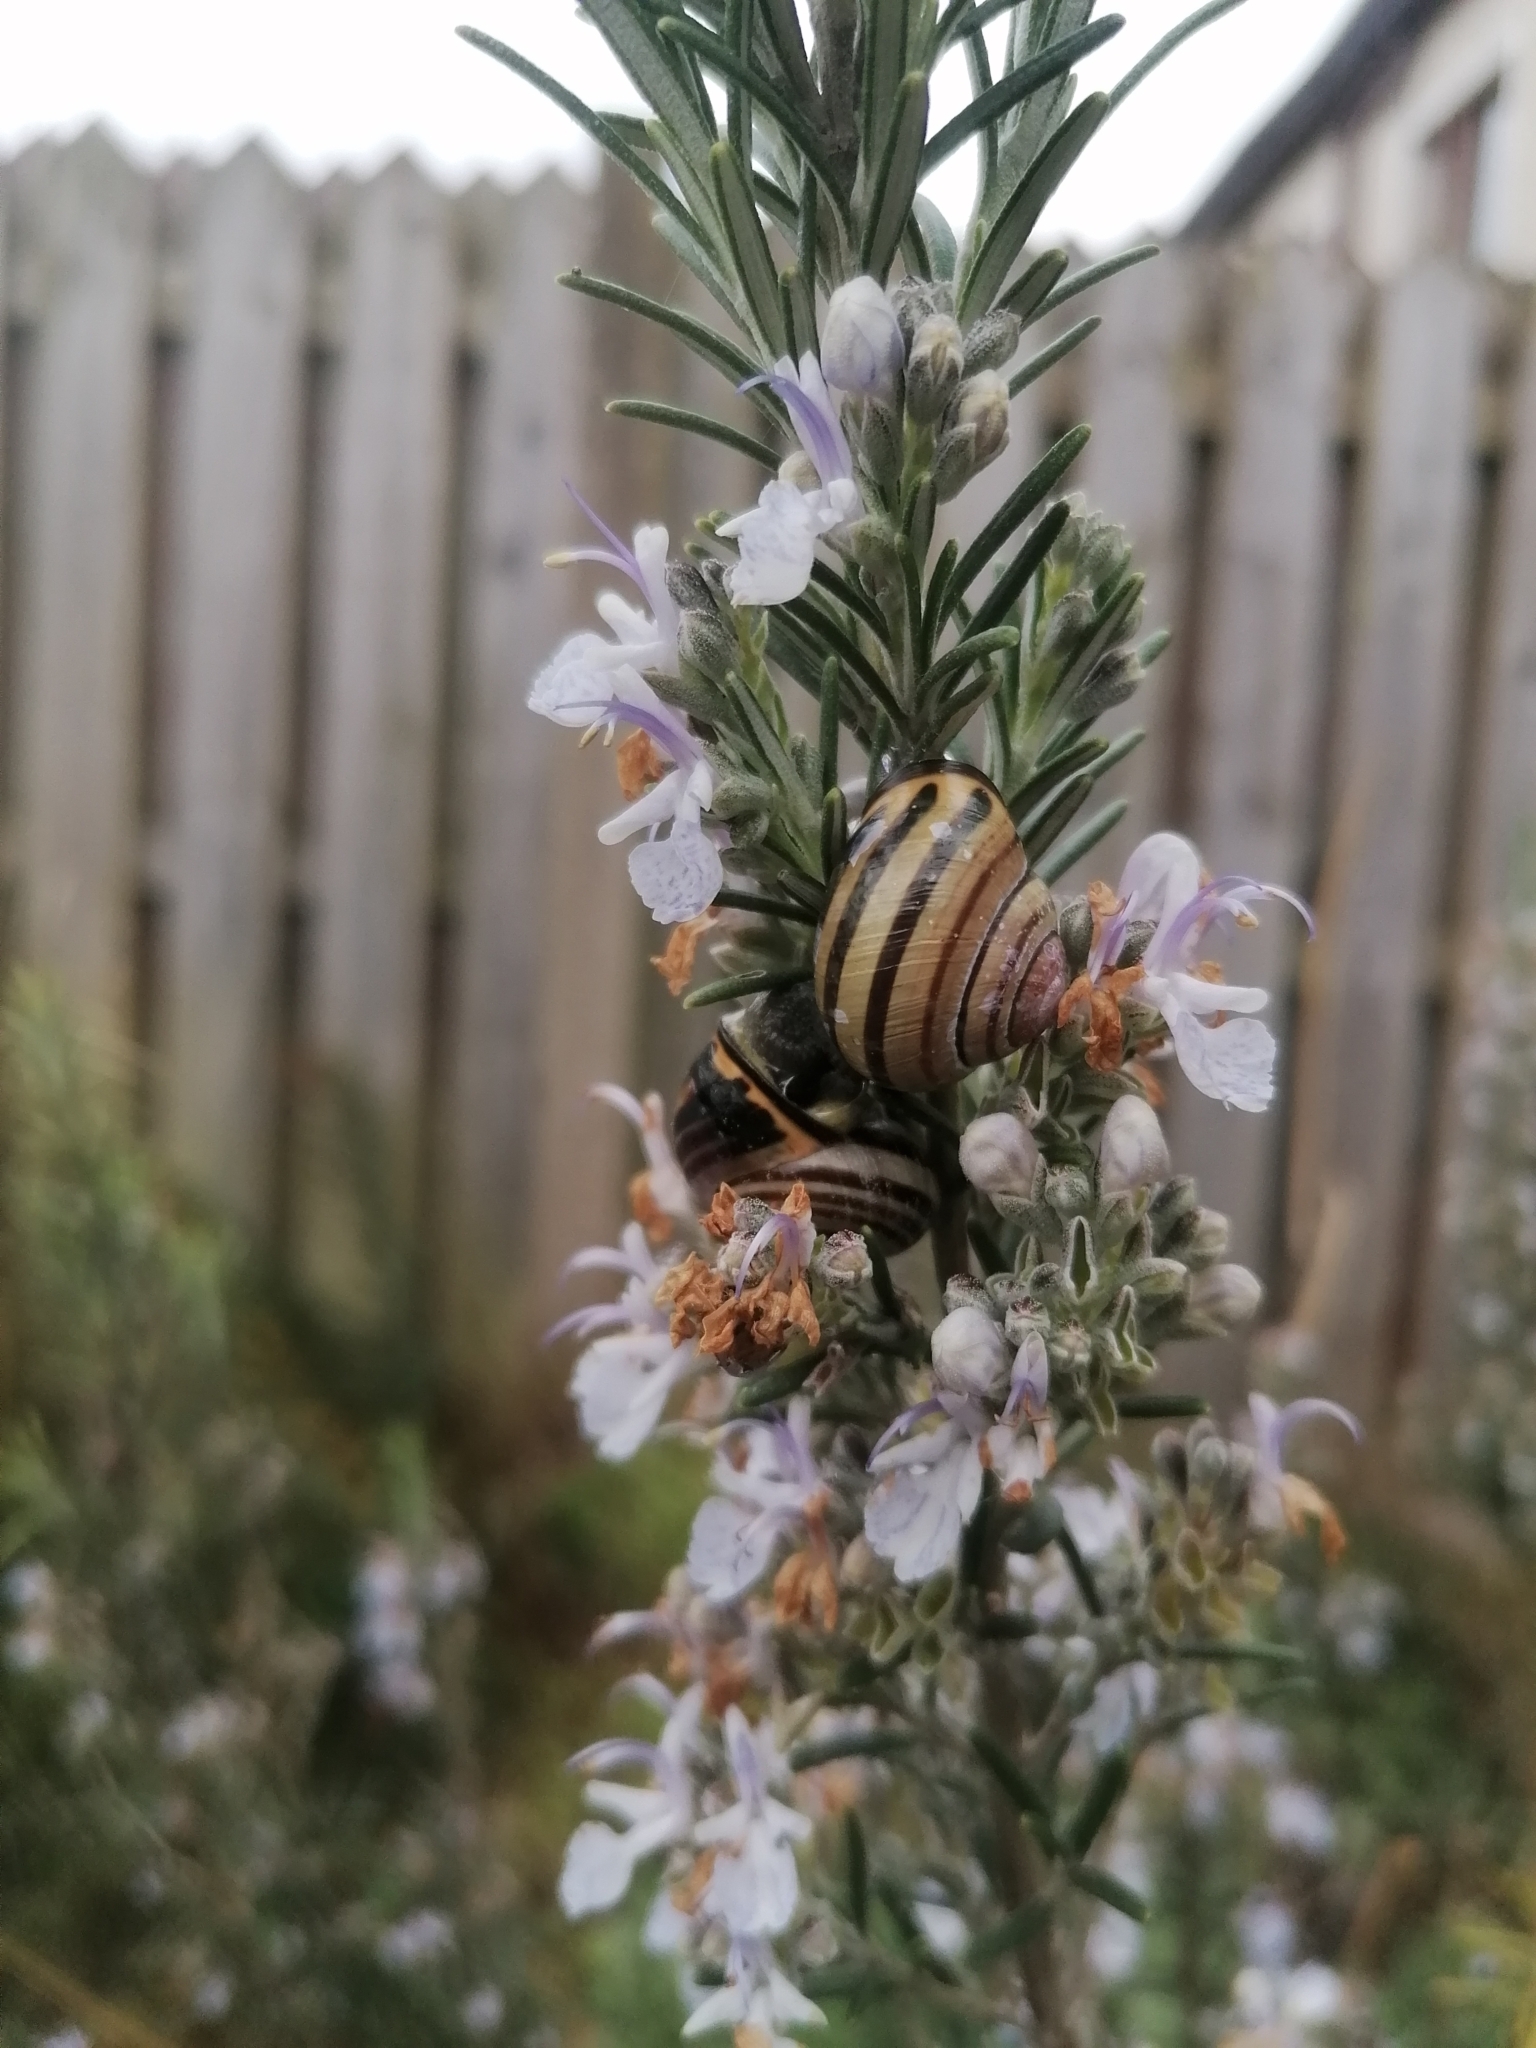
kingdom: Animalia
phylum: Mollusca
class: Gastropoda
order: Stylommatophora
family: Helicidae
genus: Cepaea
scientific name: Cepaea nemoralis
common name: Grovesnail
